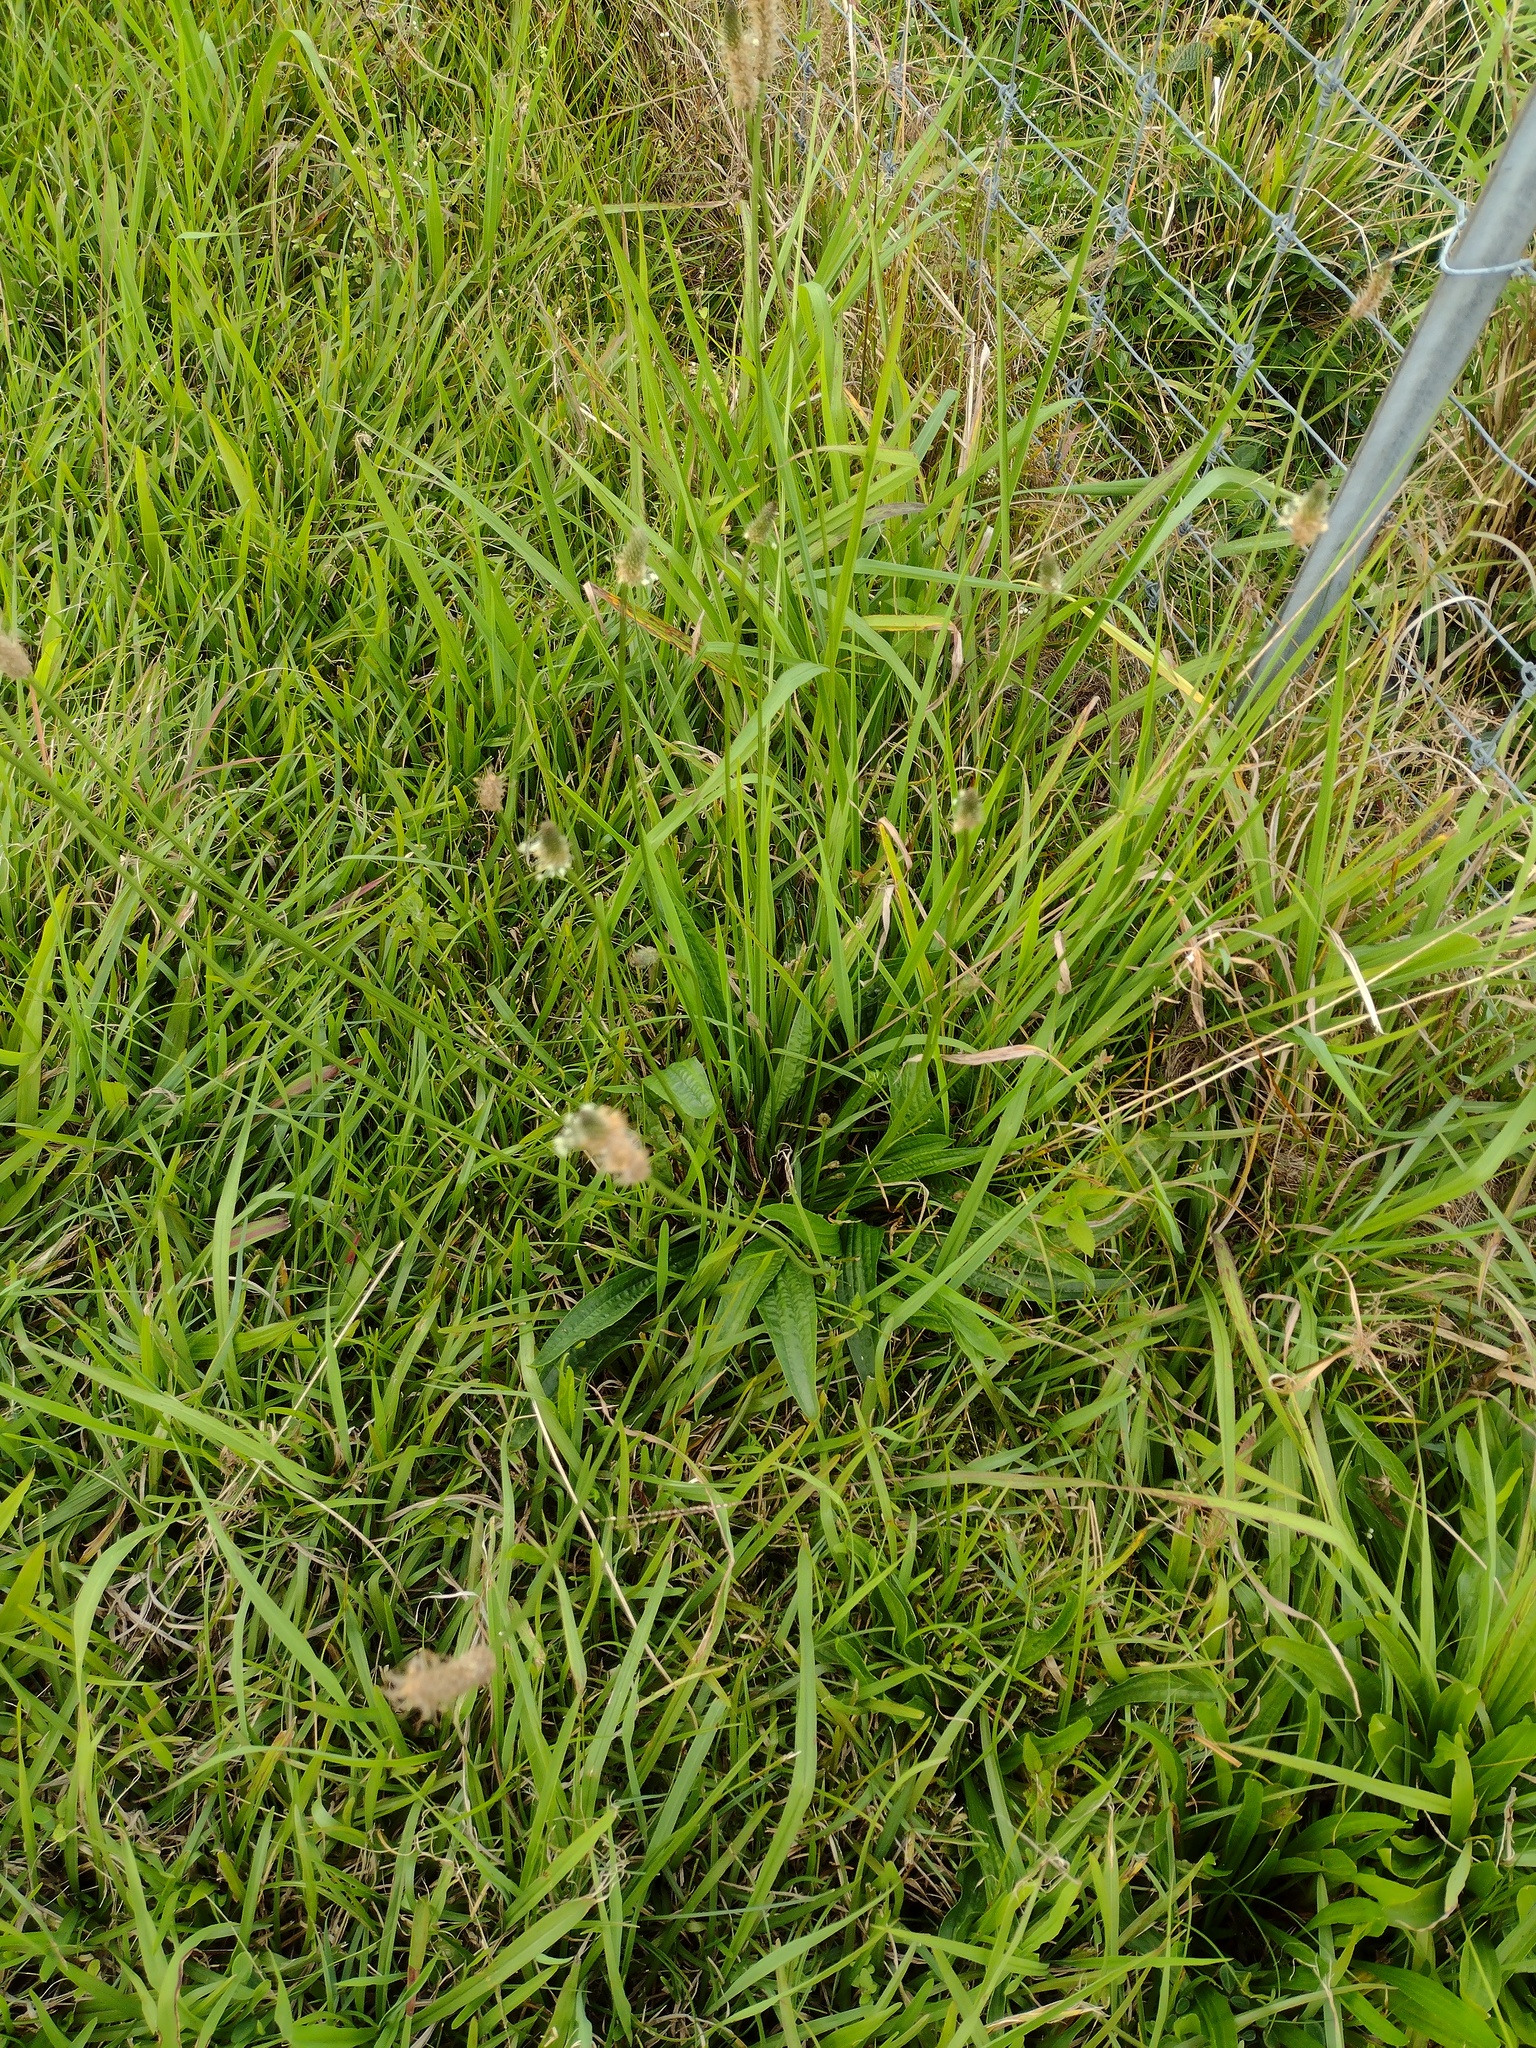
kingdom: Plantae
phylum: Tracheophyta
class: Magnoliopsida
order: Lamiales
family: Plantaginaceae
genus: Plantago
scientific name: Plantago lanceolata
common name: Ribwort plantain
